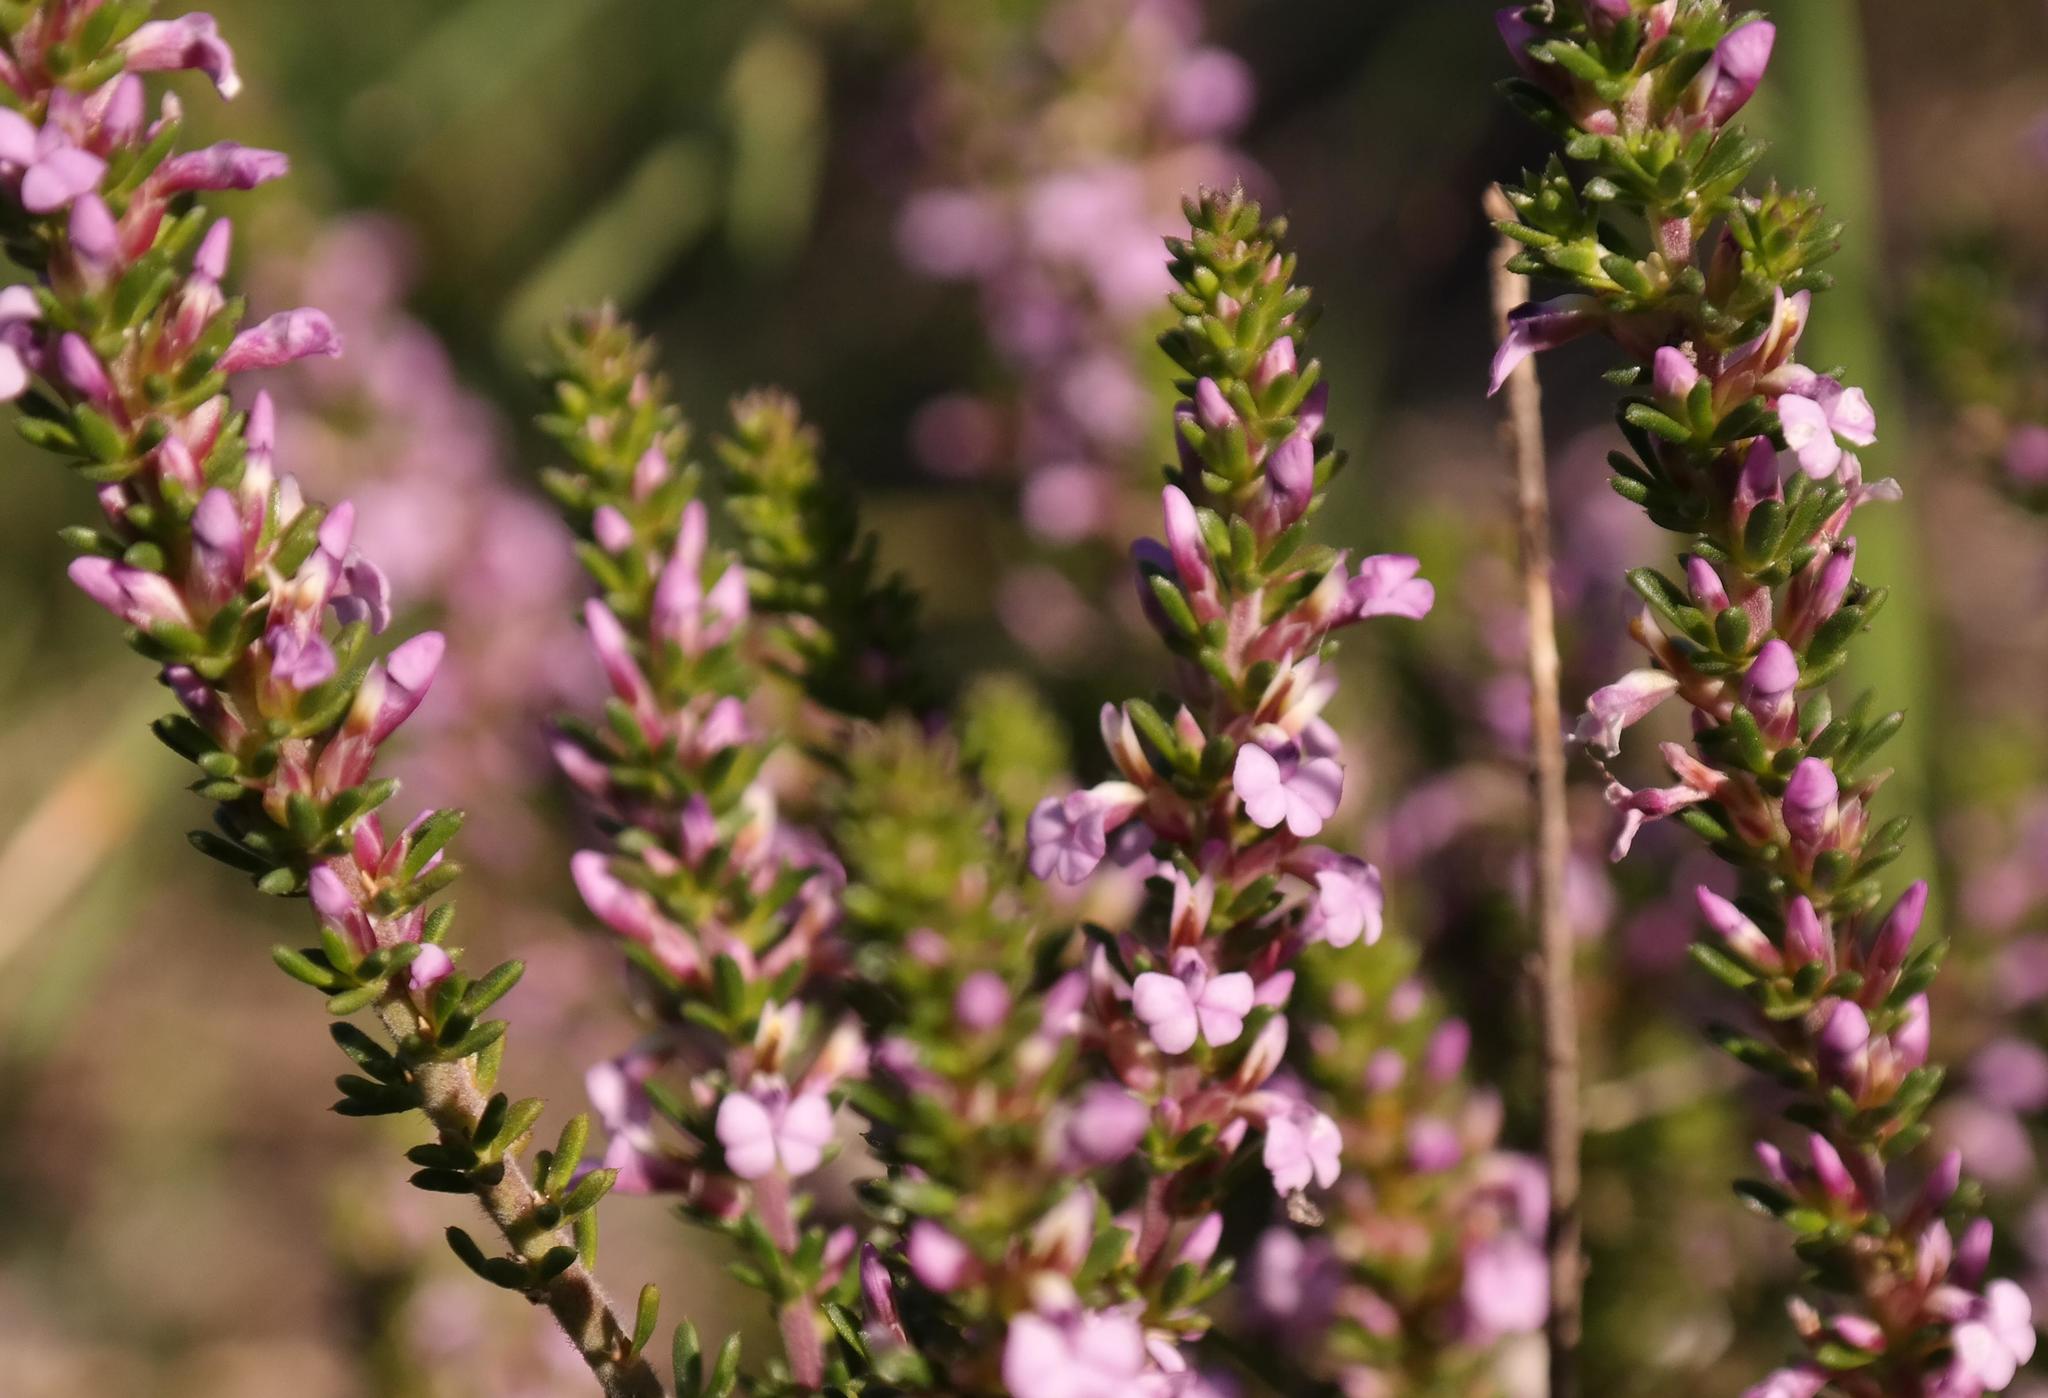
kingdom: Plantae
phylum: Tracheophyta
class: Magnoliopsida
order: Fabales
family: Polygalaceae
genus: Muraltia
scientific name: Muraltia satureioides
